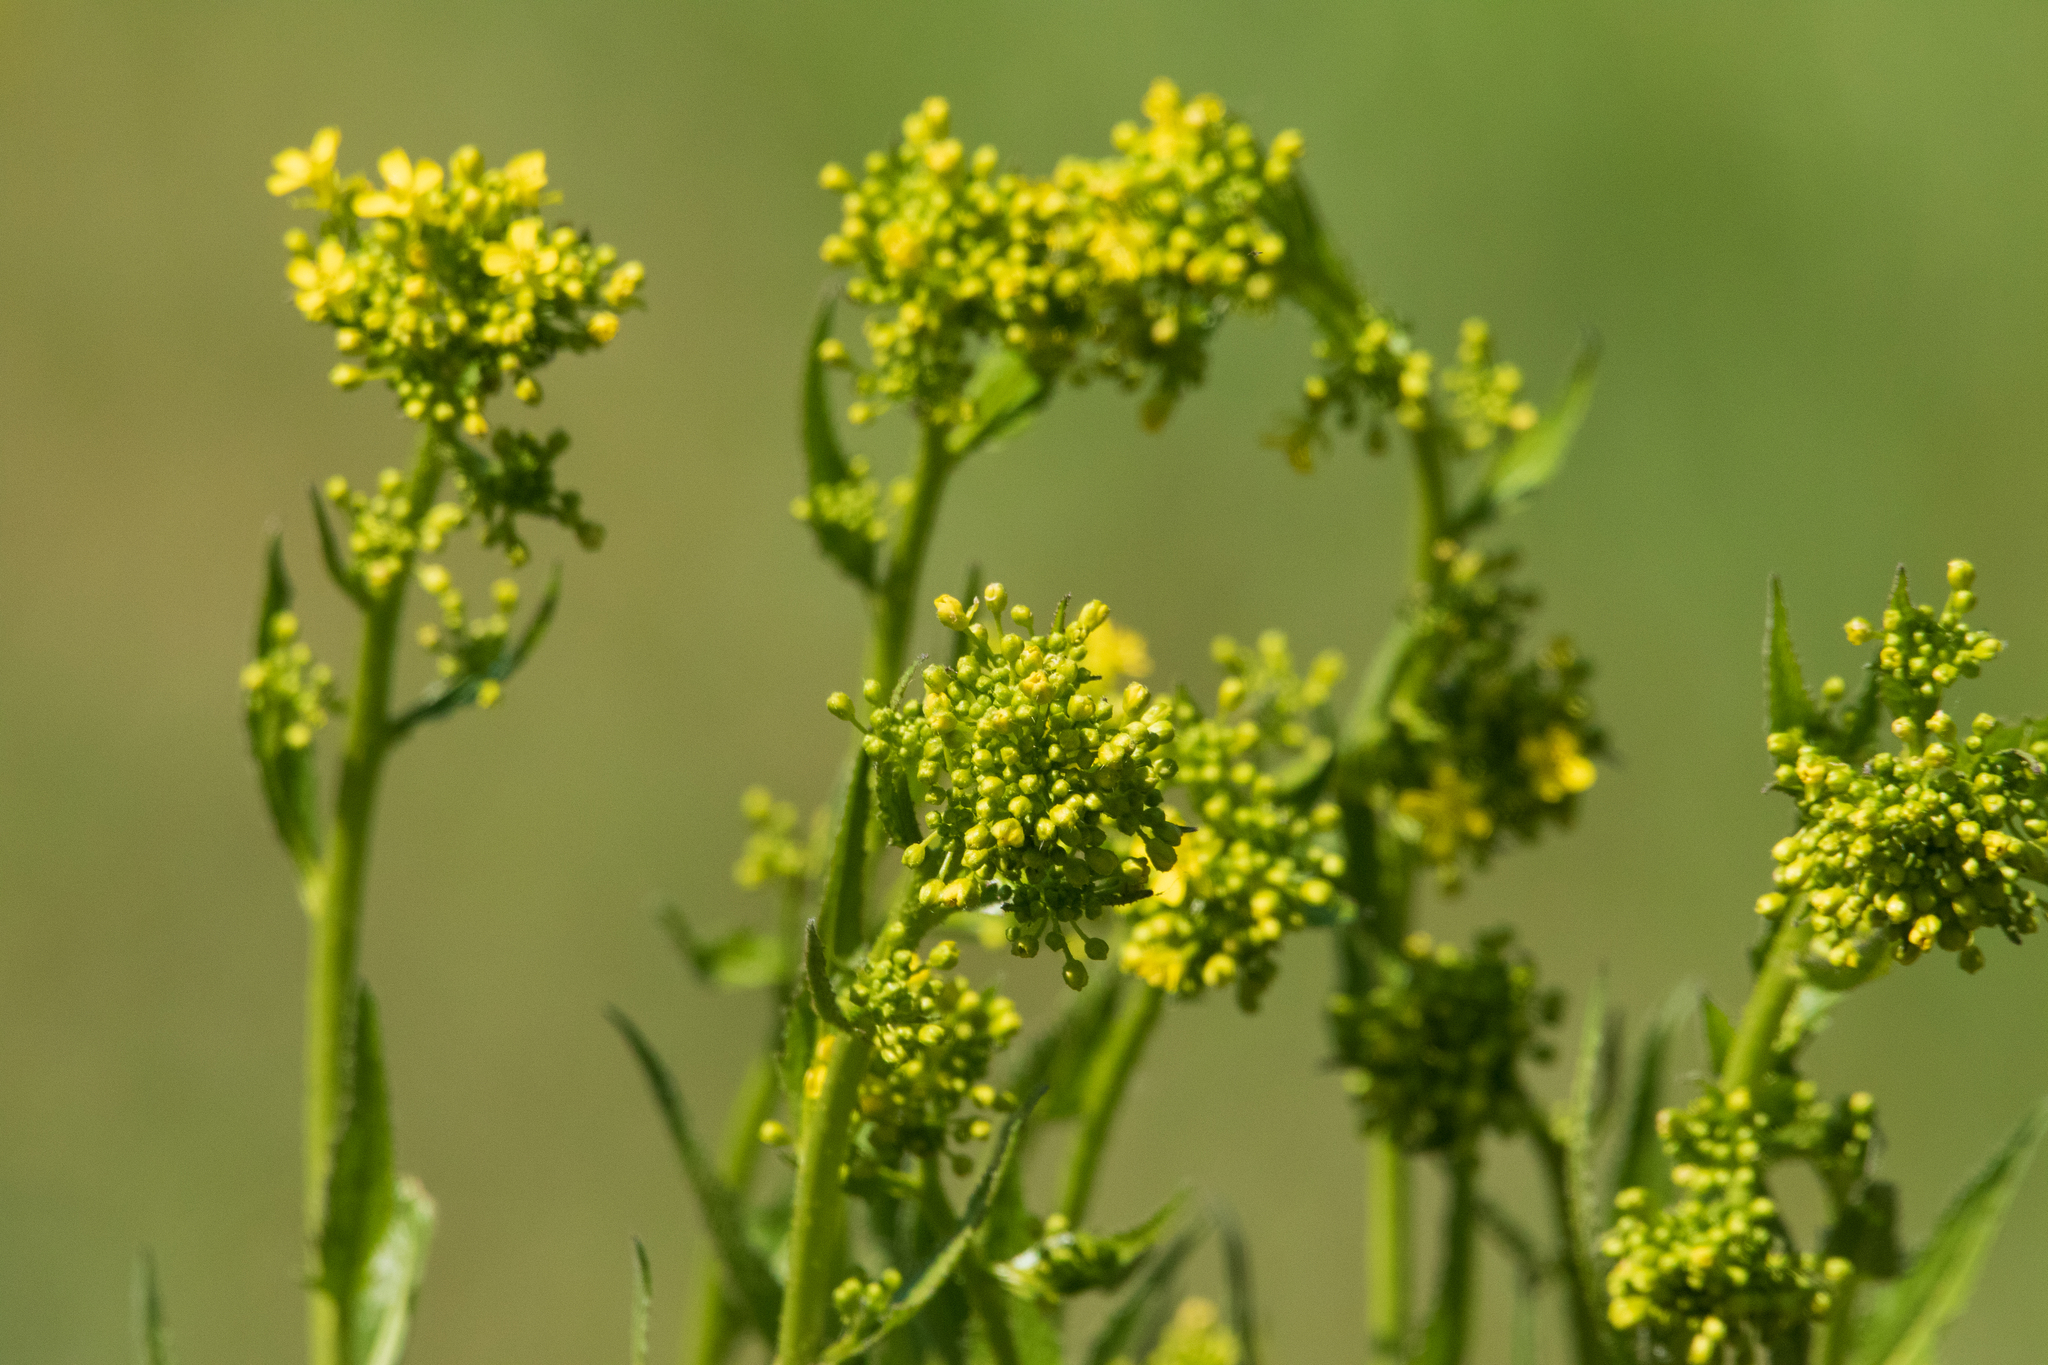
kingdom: Plantae
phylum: Tracheophyta
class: Magnoliopsida
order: Brassicales
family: Brassicaceae
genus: Bunias
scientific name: Bunias orientalis
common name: Warty-cabbage
